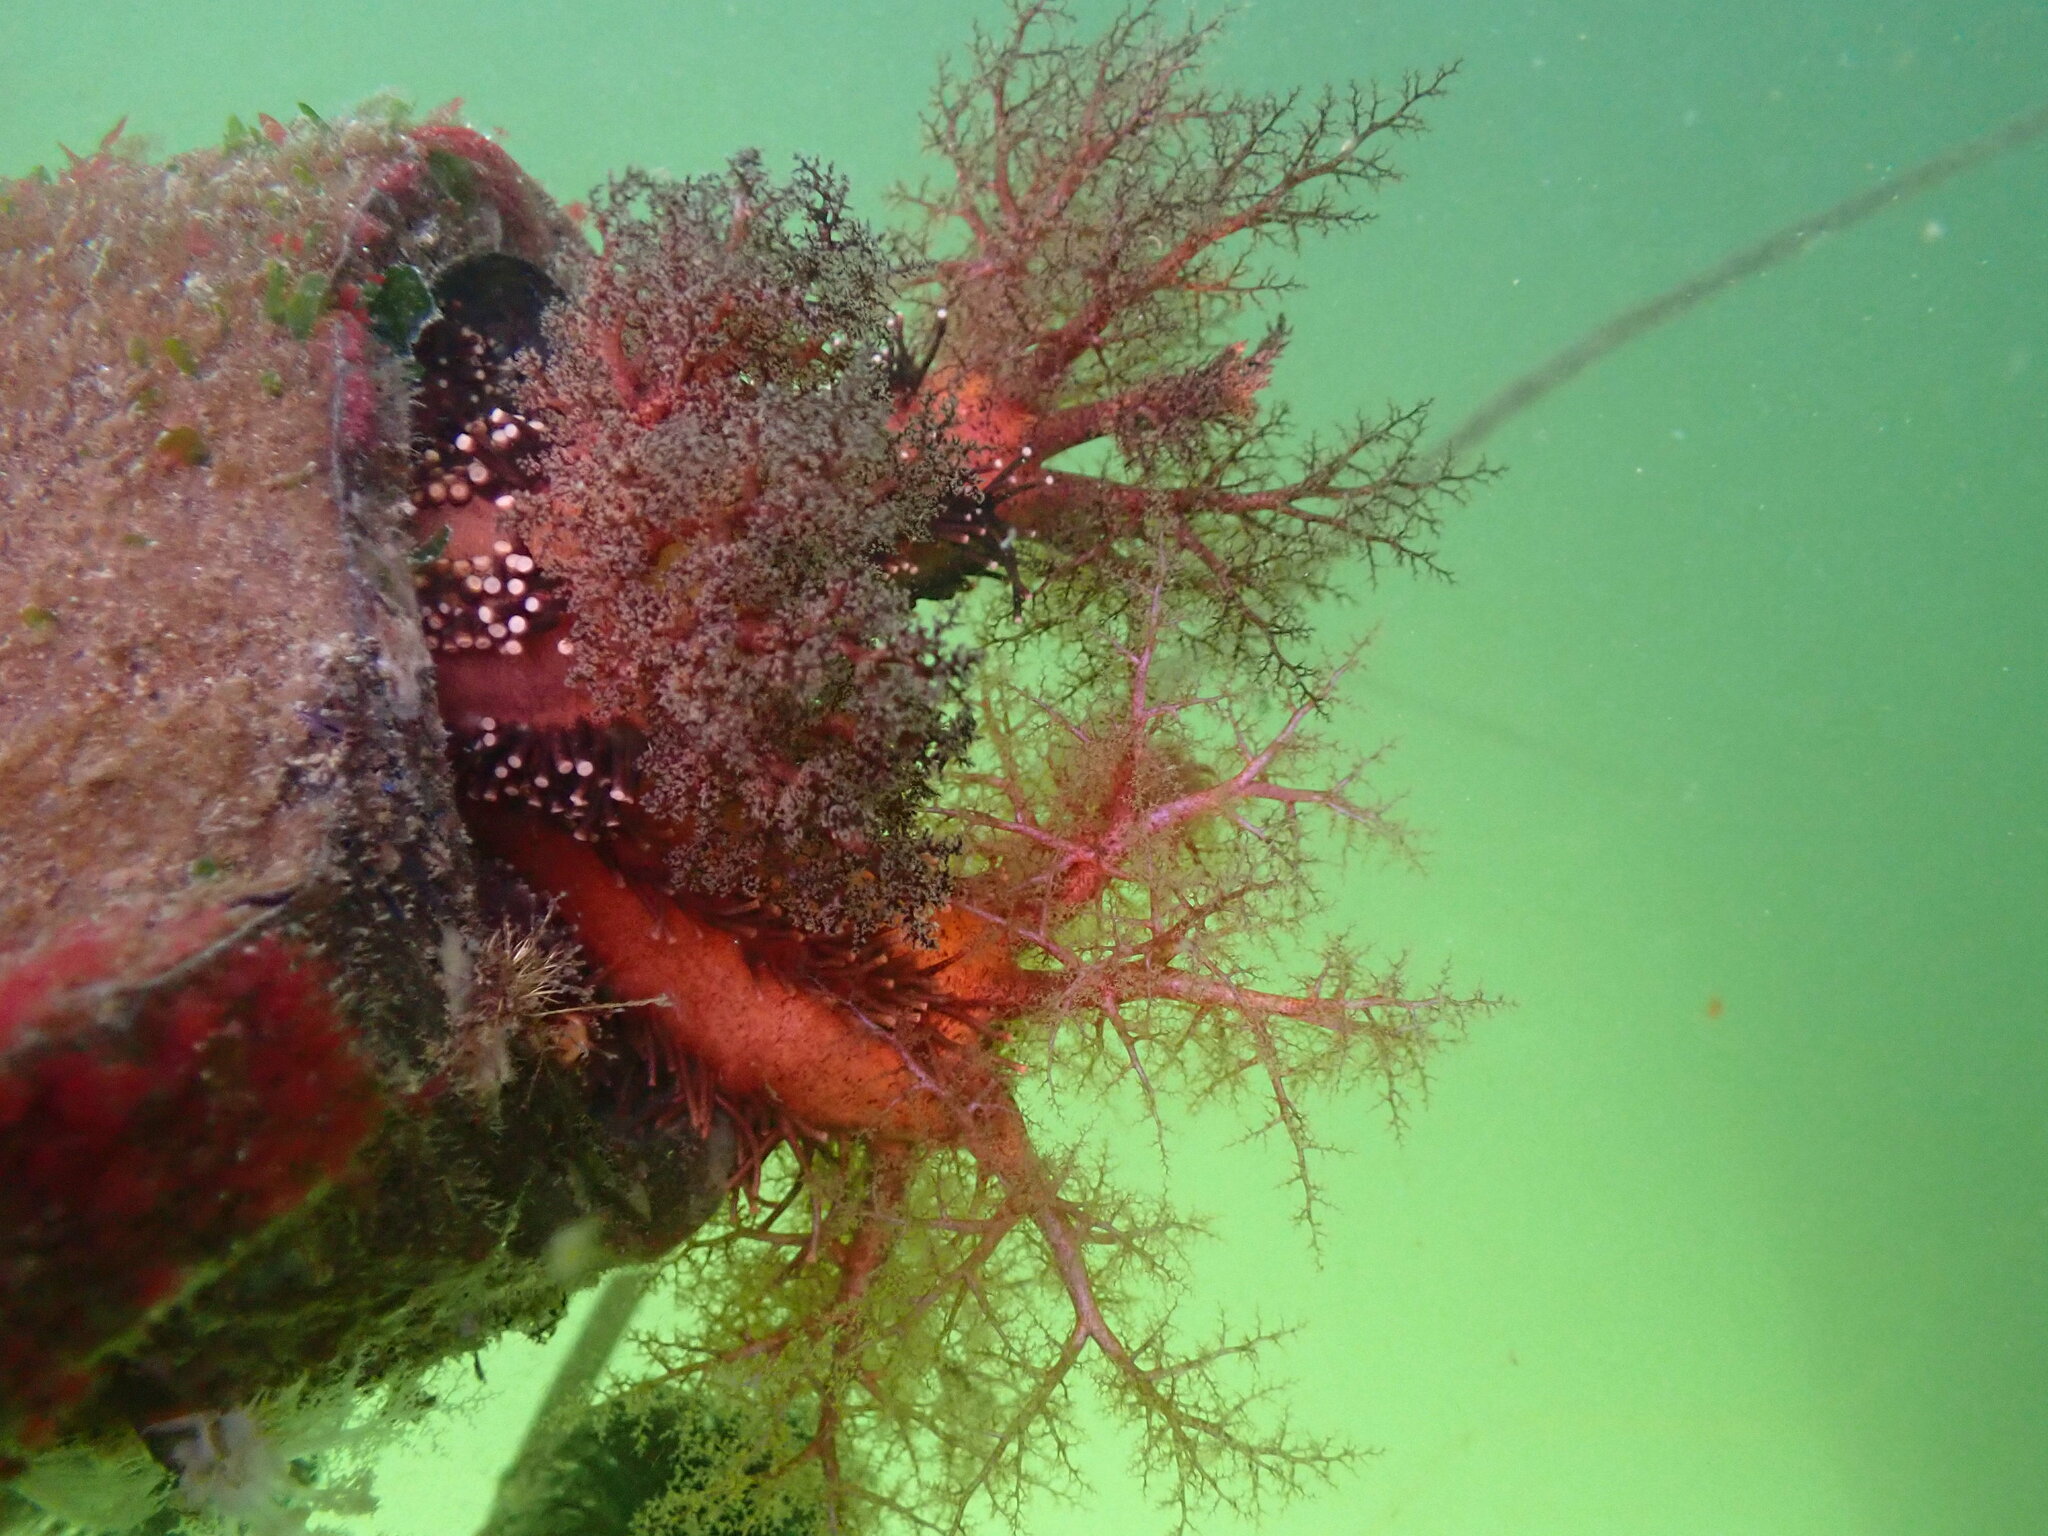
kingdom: Animalia
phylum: Echinodermata
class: Holothuroidea
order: Dendrochirotida
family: Cucumariidae
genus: Cucumaria
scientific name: Cucumaria miniata
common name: Orange sea cucumber
